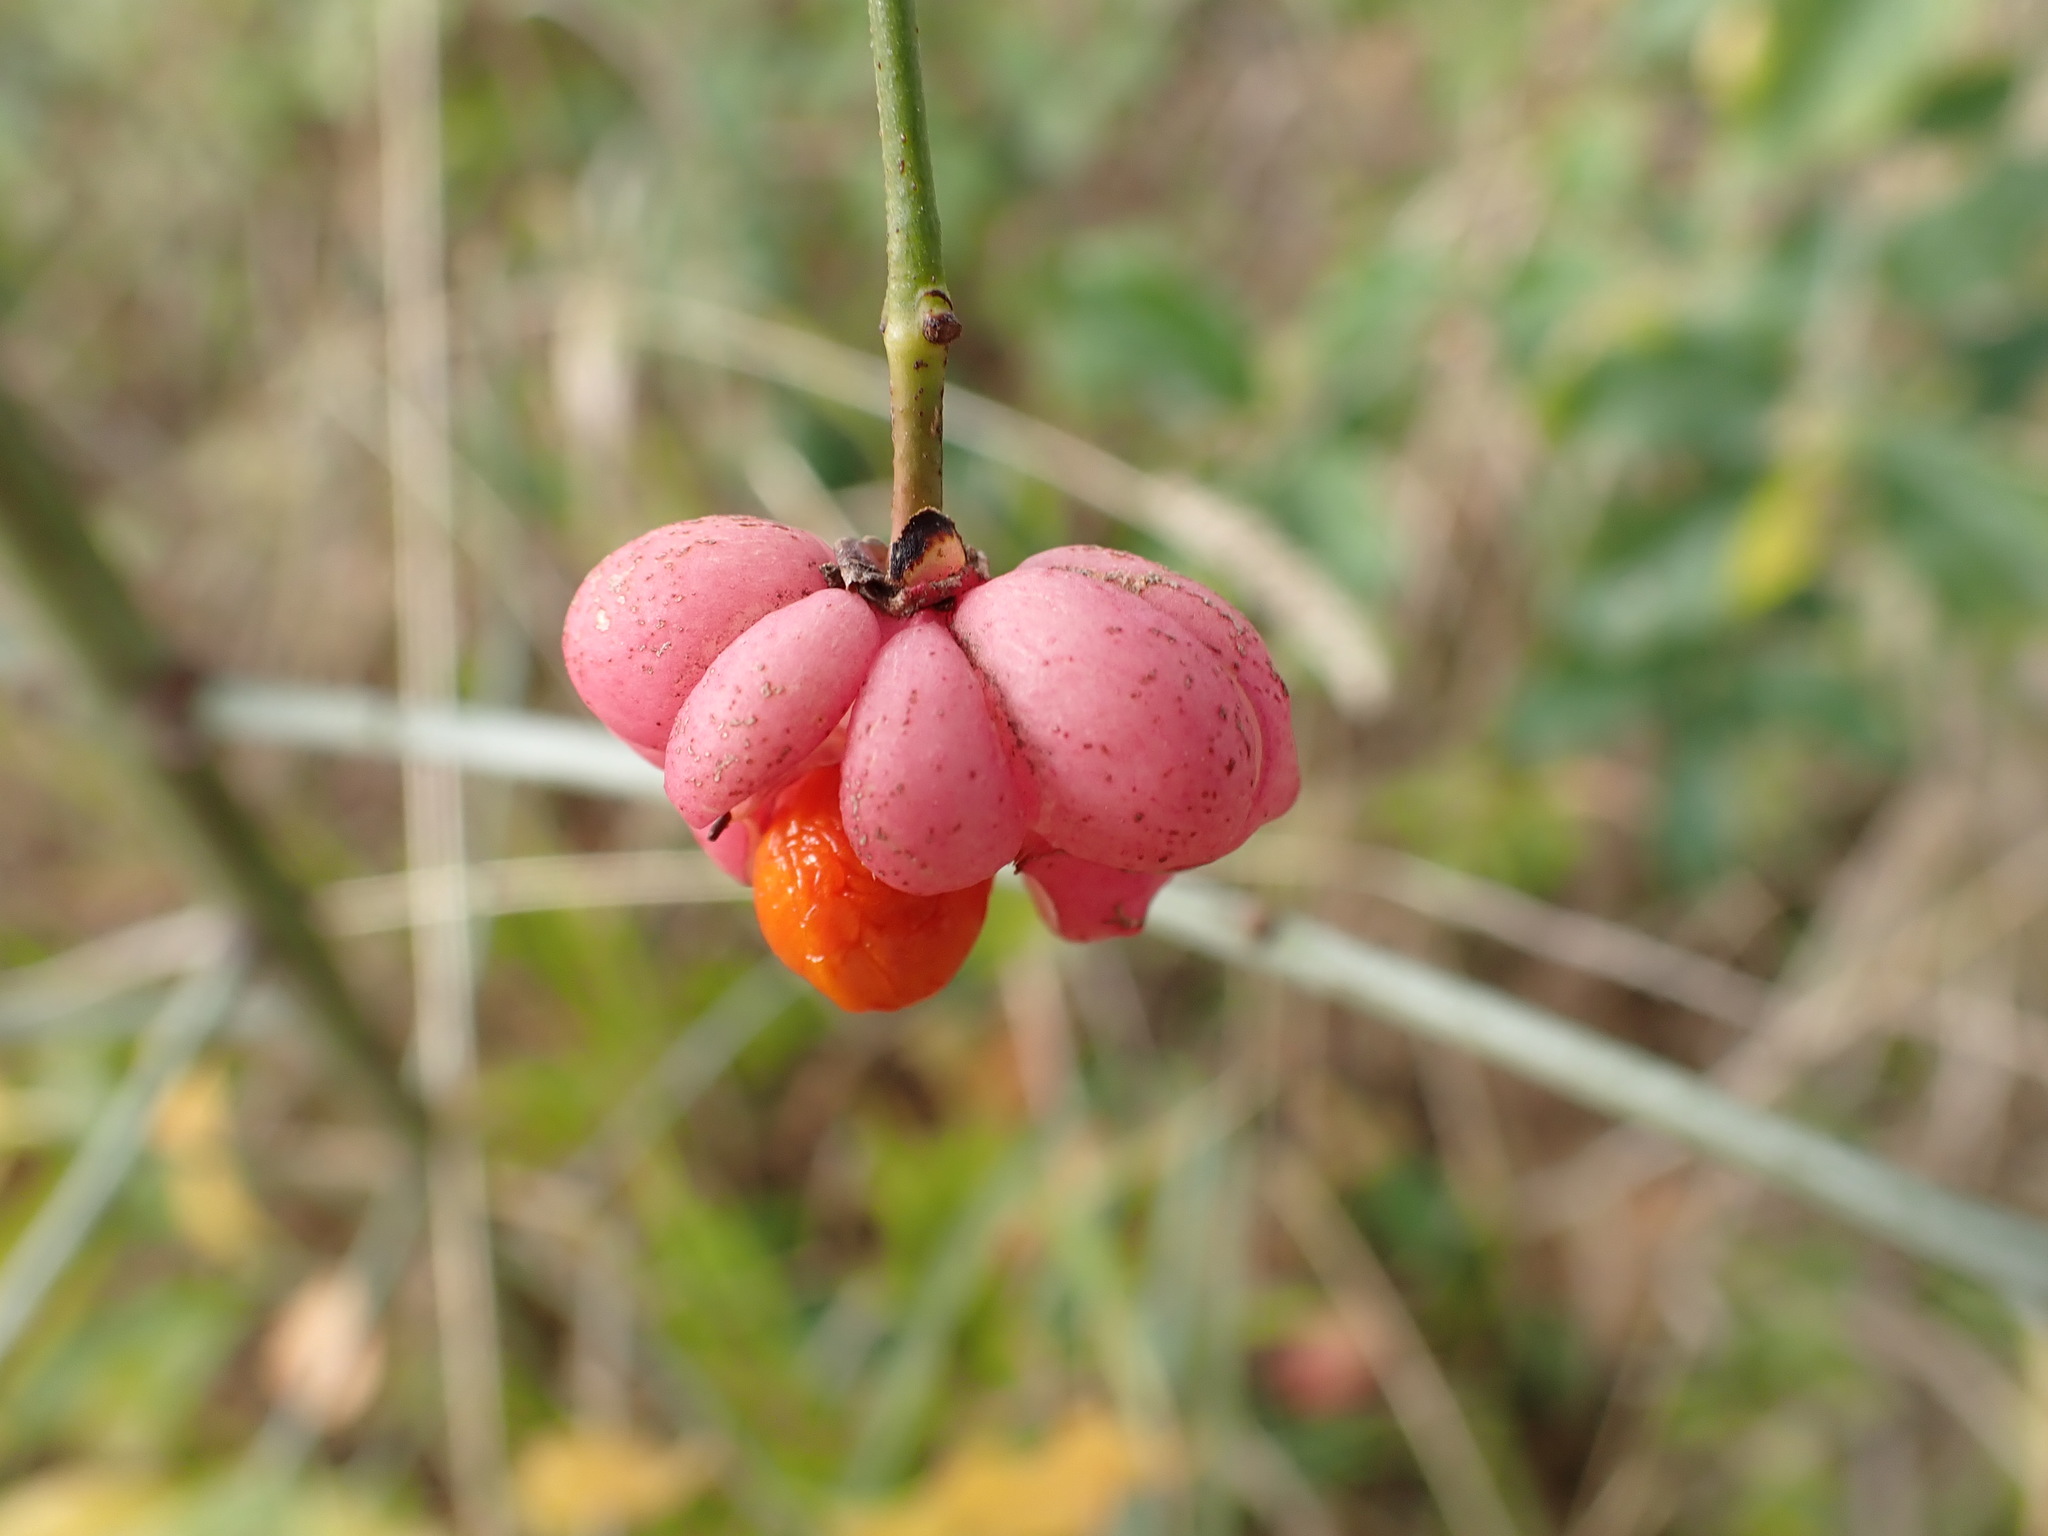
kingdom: Plantae
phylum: Tracheophyta
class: Magnoliopsida
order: Celastrales
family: Celastraceae
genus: Euonymus
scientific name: Euonymus europaeus
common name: Spindle
